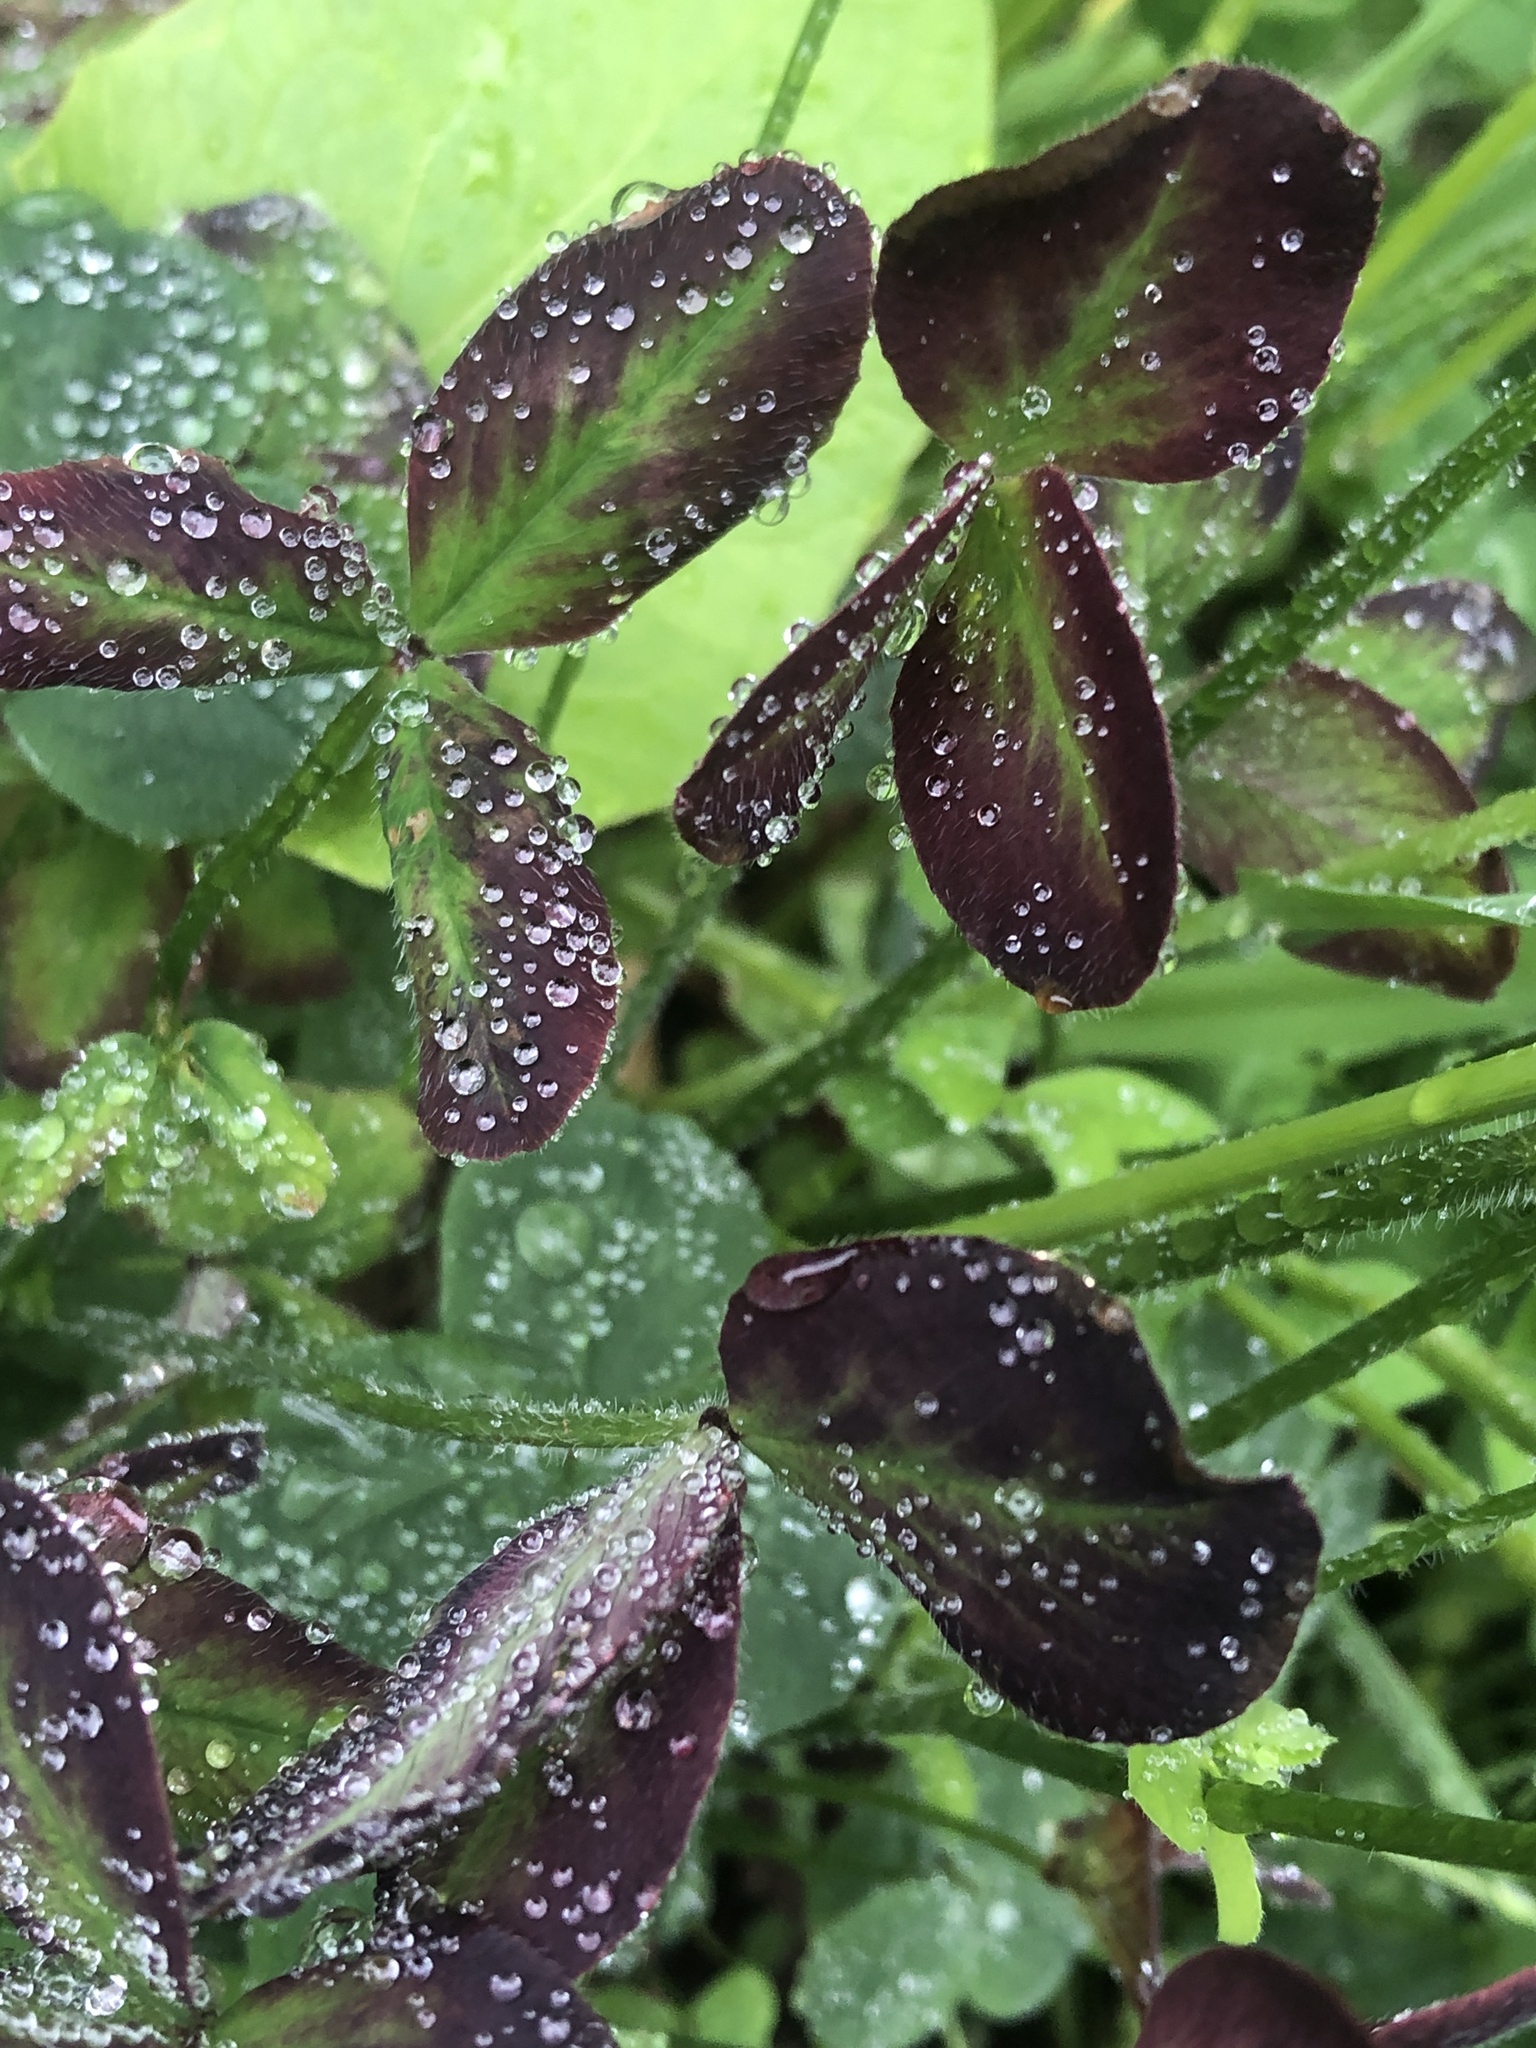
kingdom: Plantae
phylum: Tracheophyta
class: Magnoliopsida
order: Fabales
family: Fabaceae
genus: Trifolium
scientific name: Trifolium pratense
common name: Red clover
